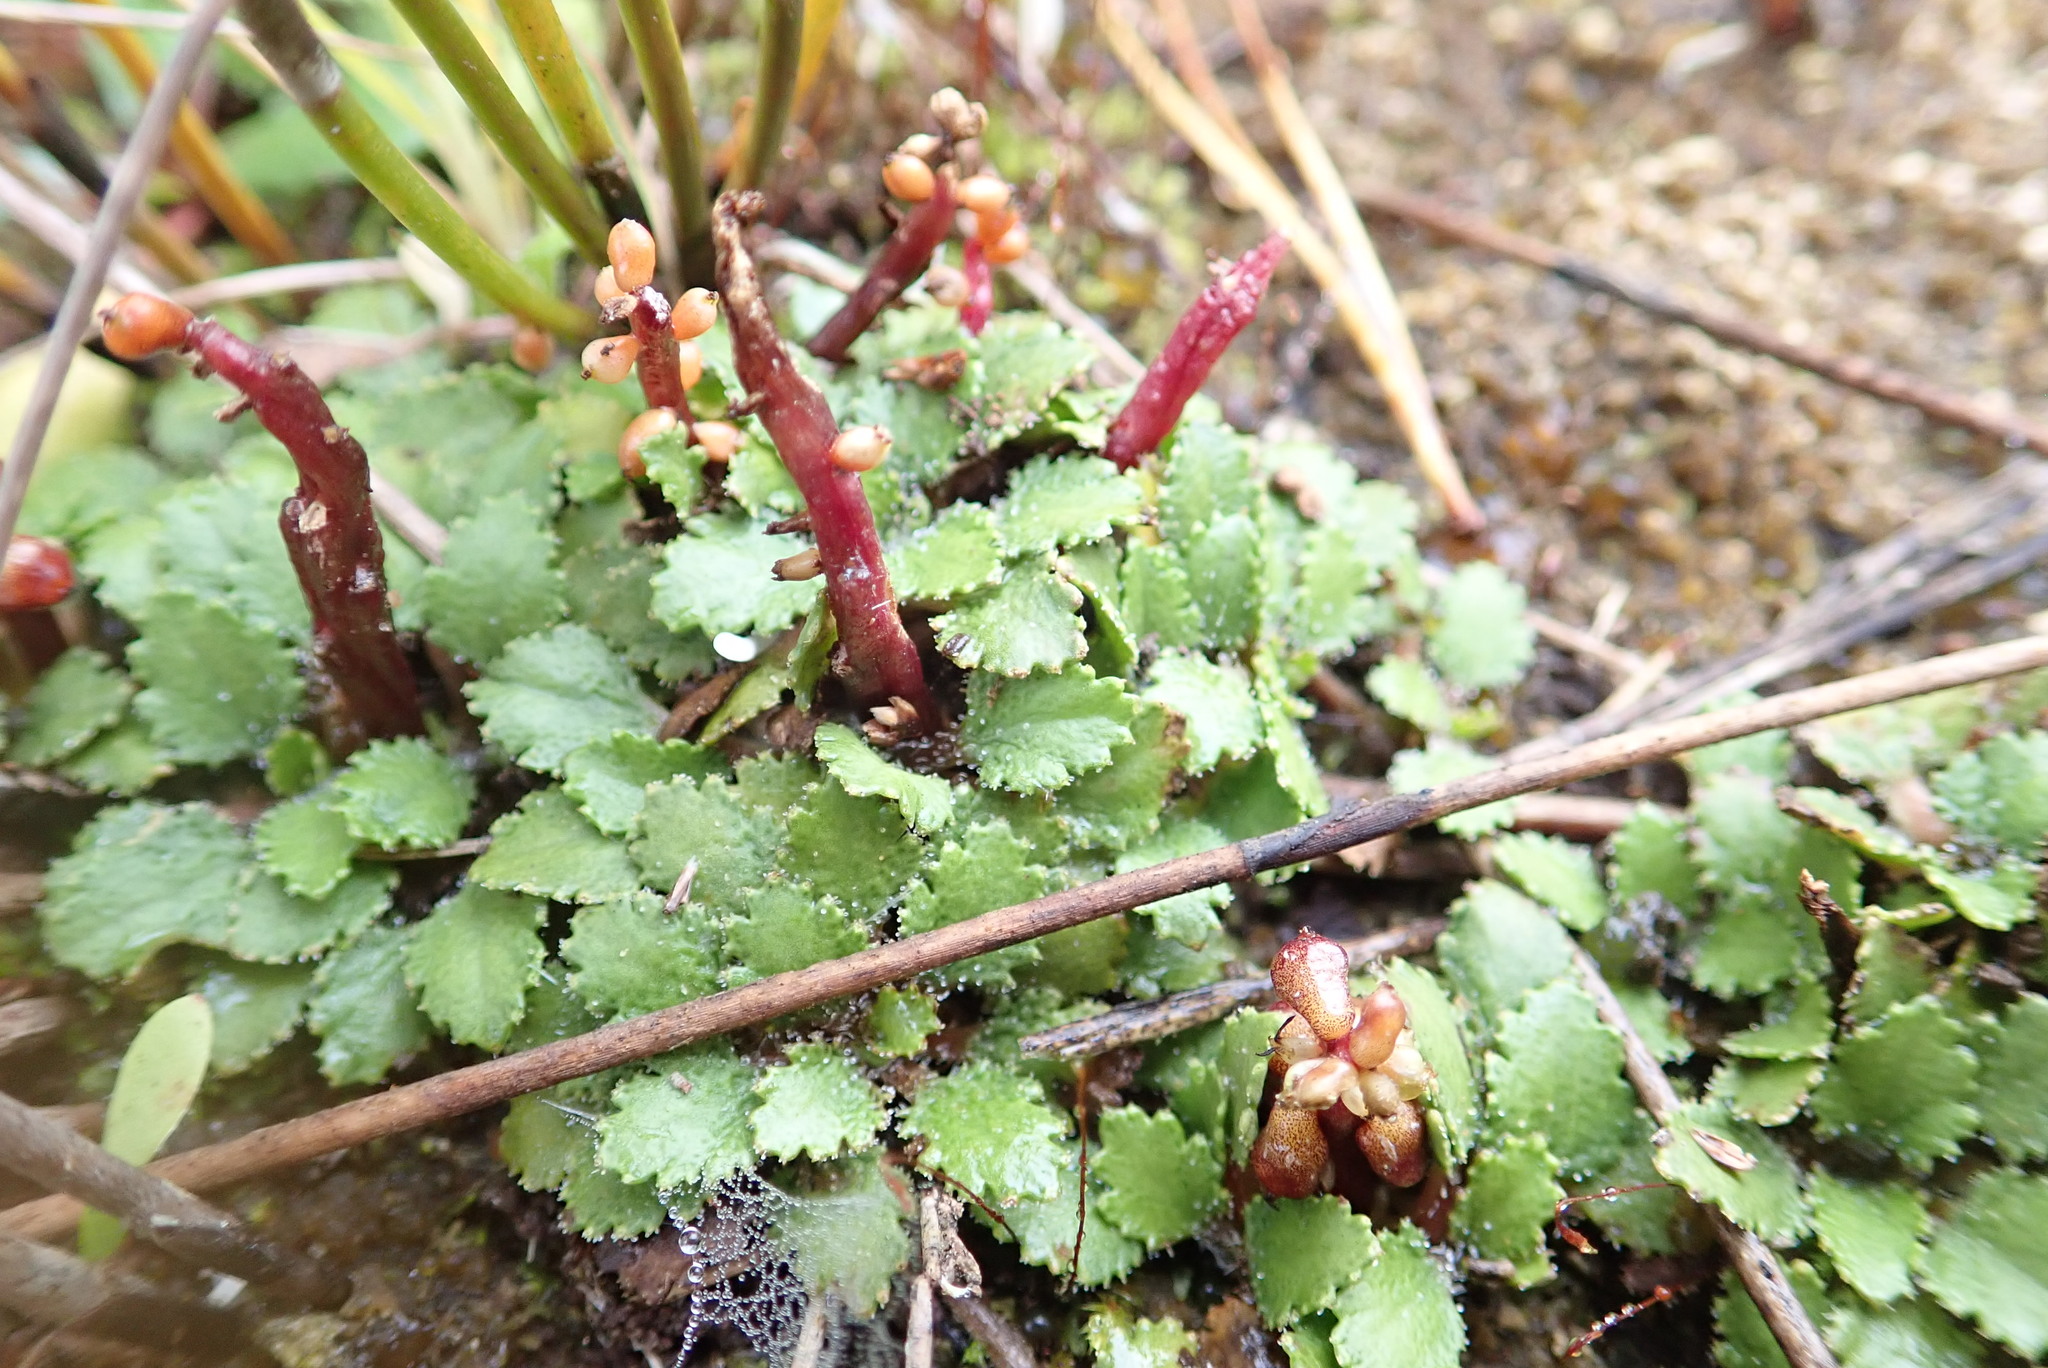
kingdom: Plantae
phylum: Tracheophyta
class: Magnoliopsida
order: Gunnerales
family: Gunneraceae
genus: Gunnera
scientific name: Gunnera dentata
